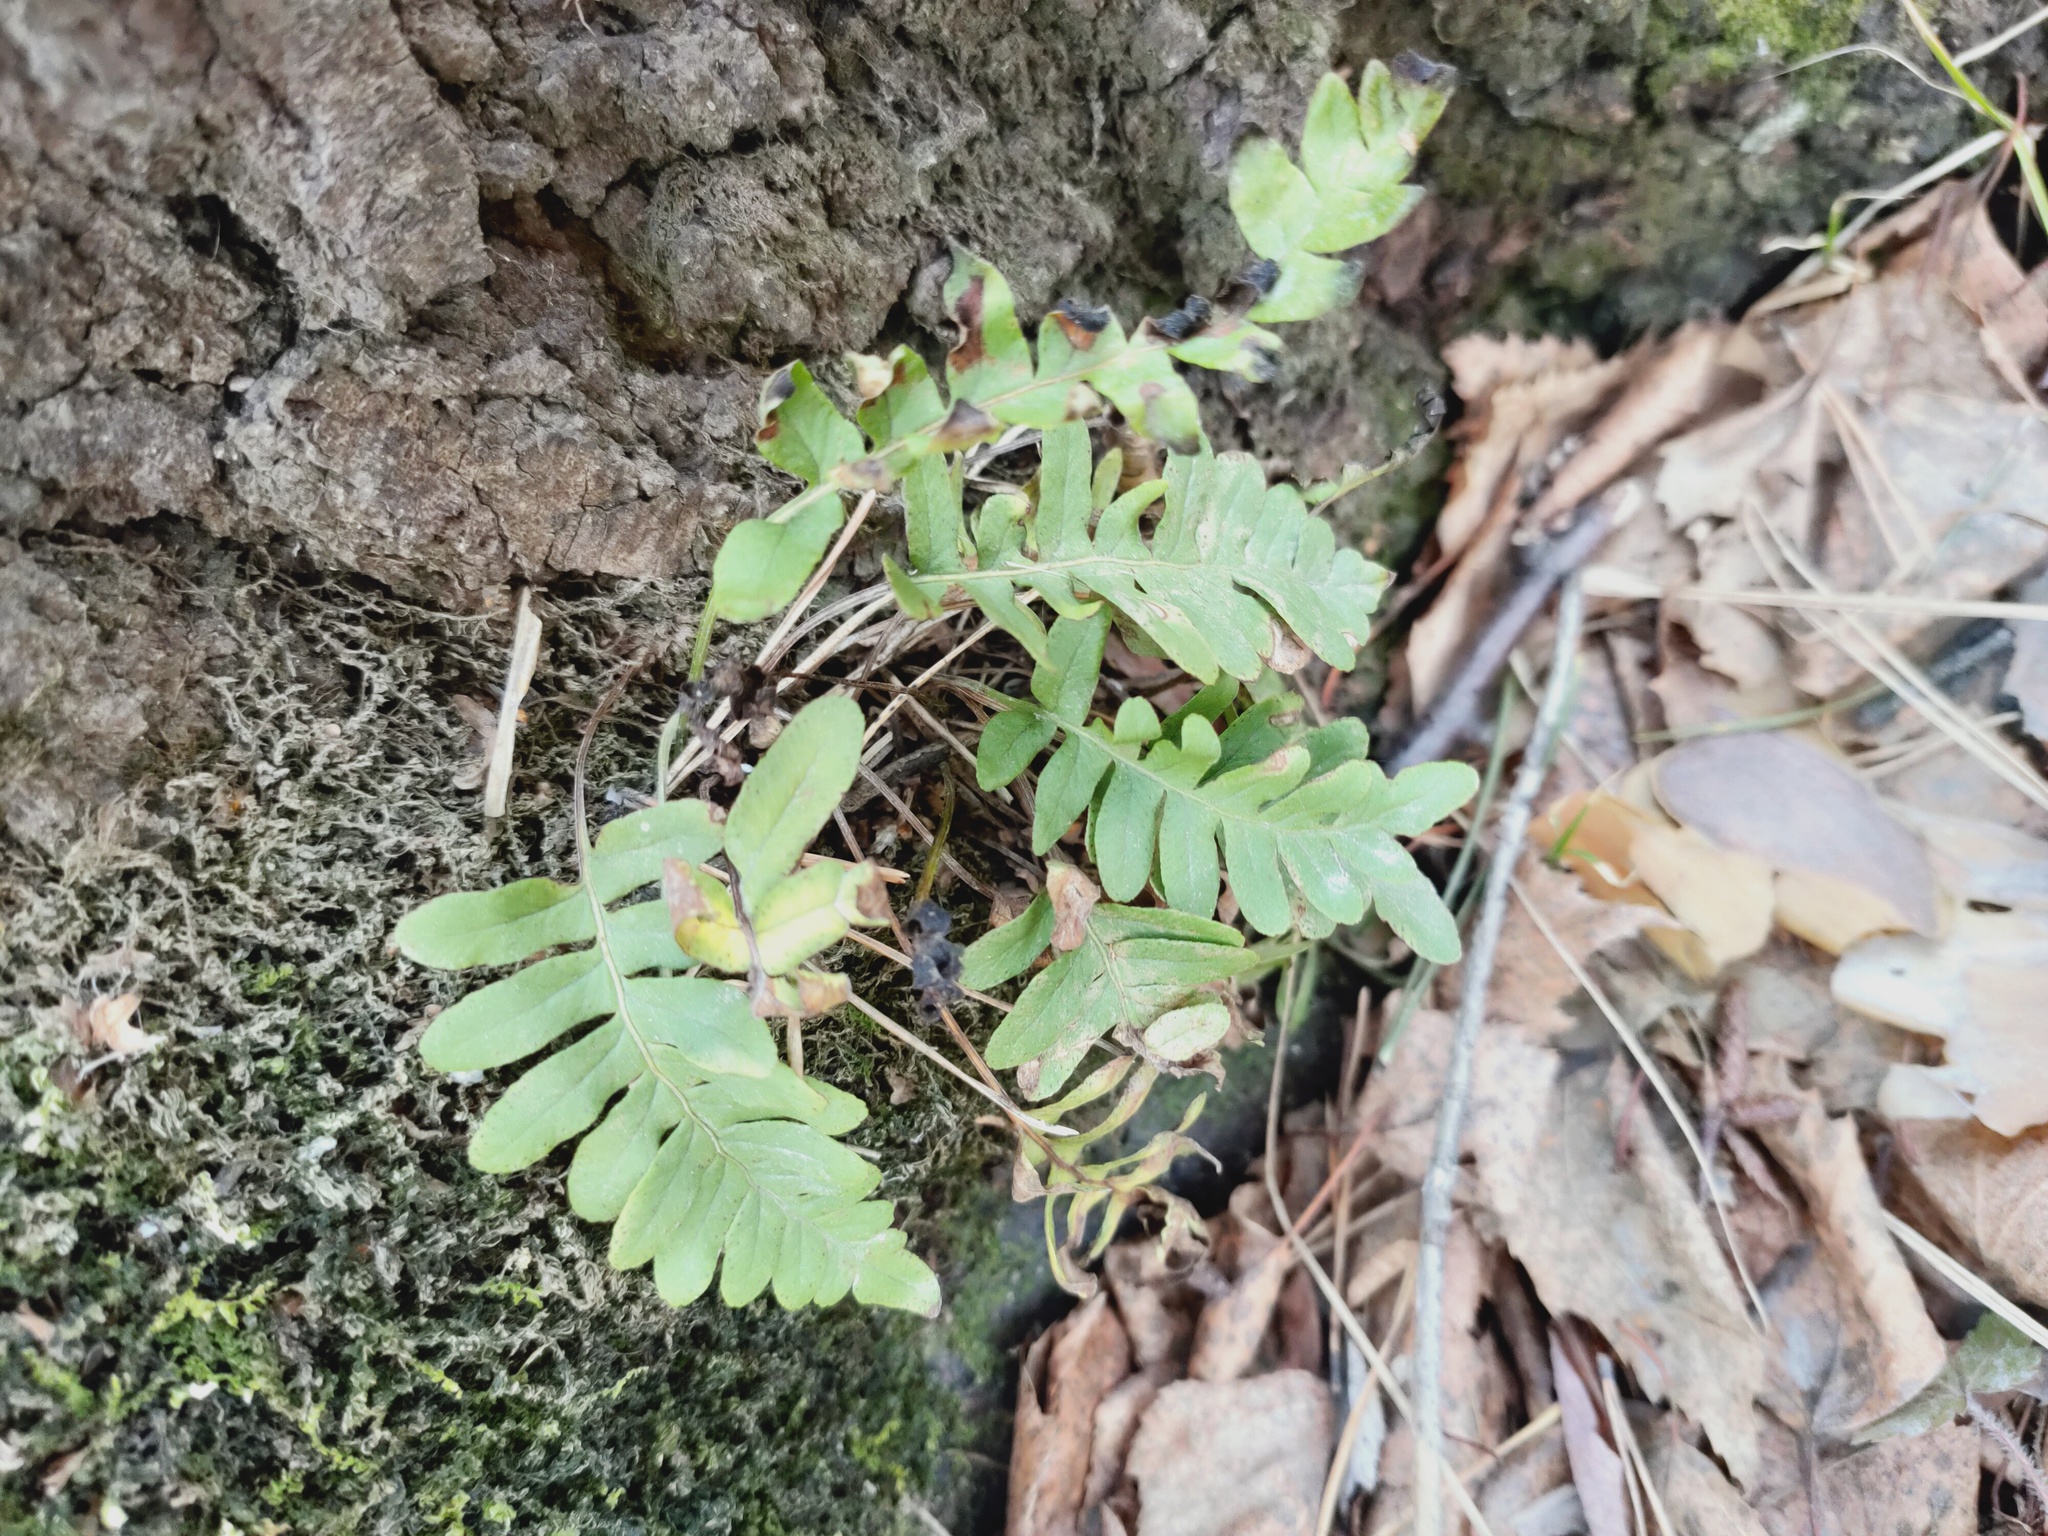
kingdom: Plantae
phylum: Tracheophyta
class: Polypodiopsida
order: Polypodiales
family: Polypodiaceae
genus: Polypodium
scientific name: Polypodium vulgare
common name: Common polypody
